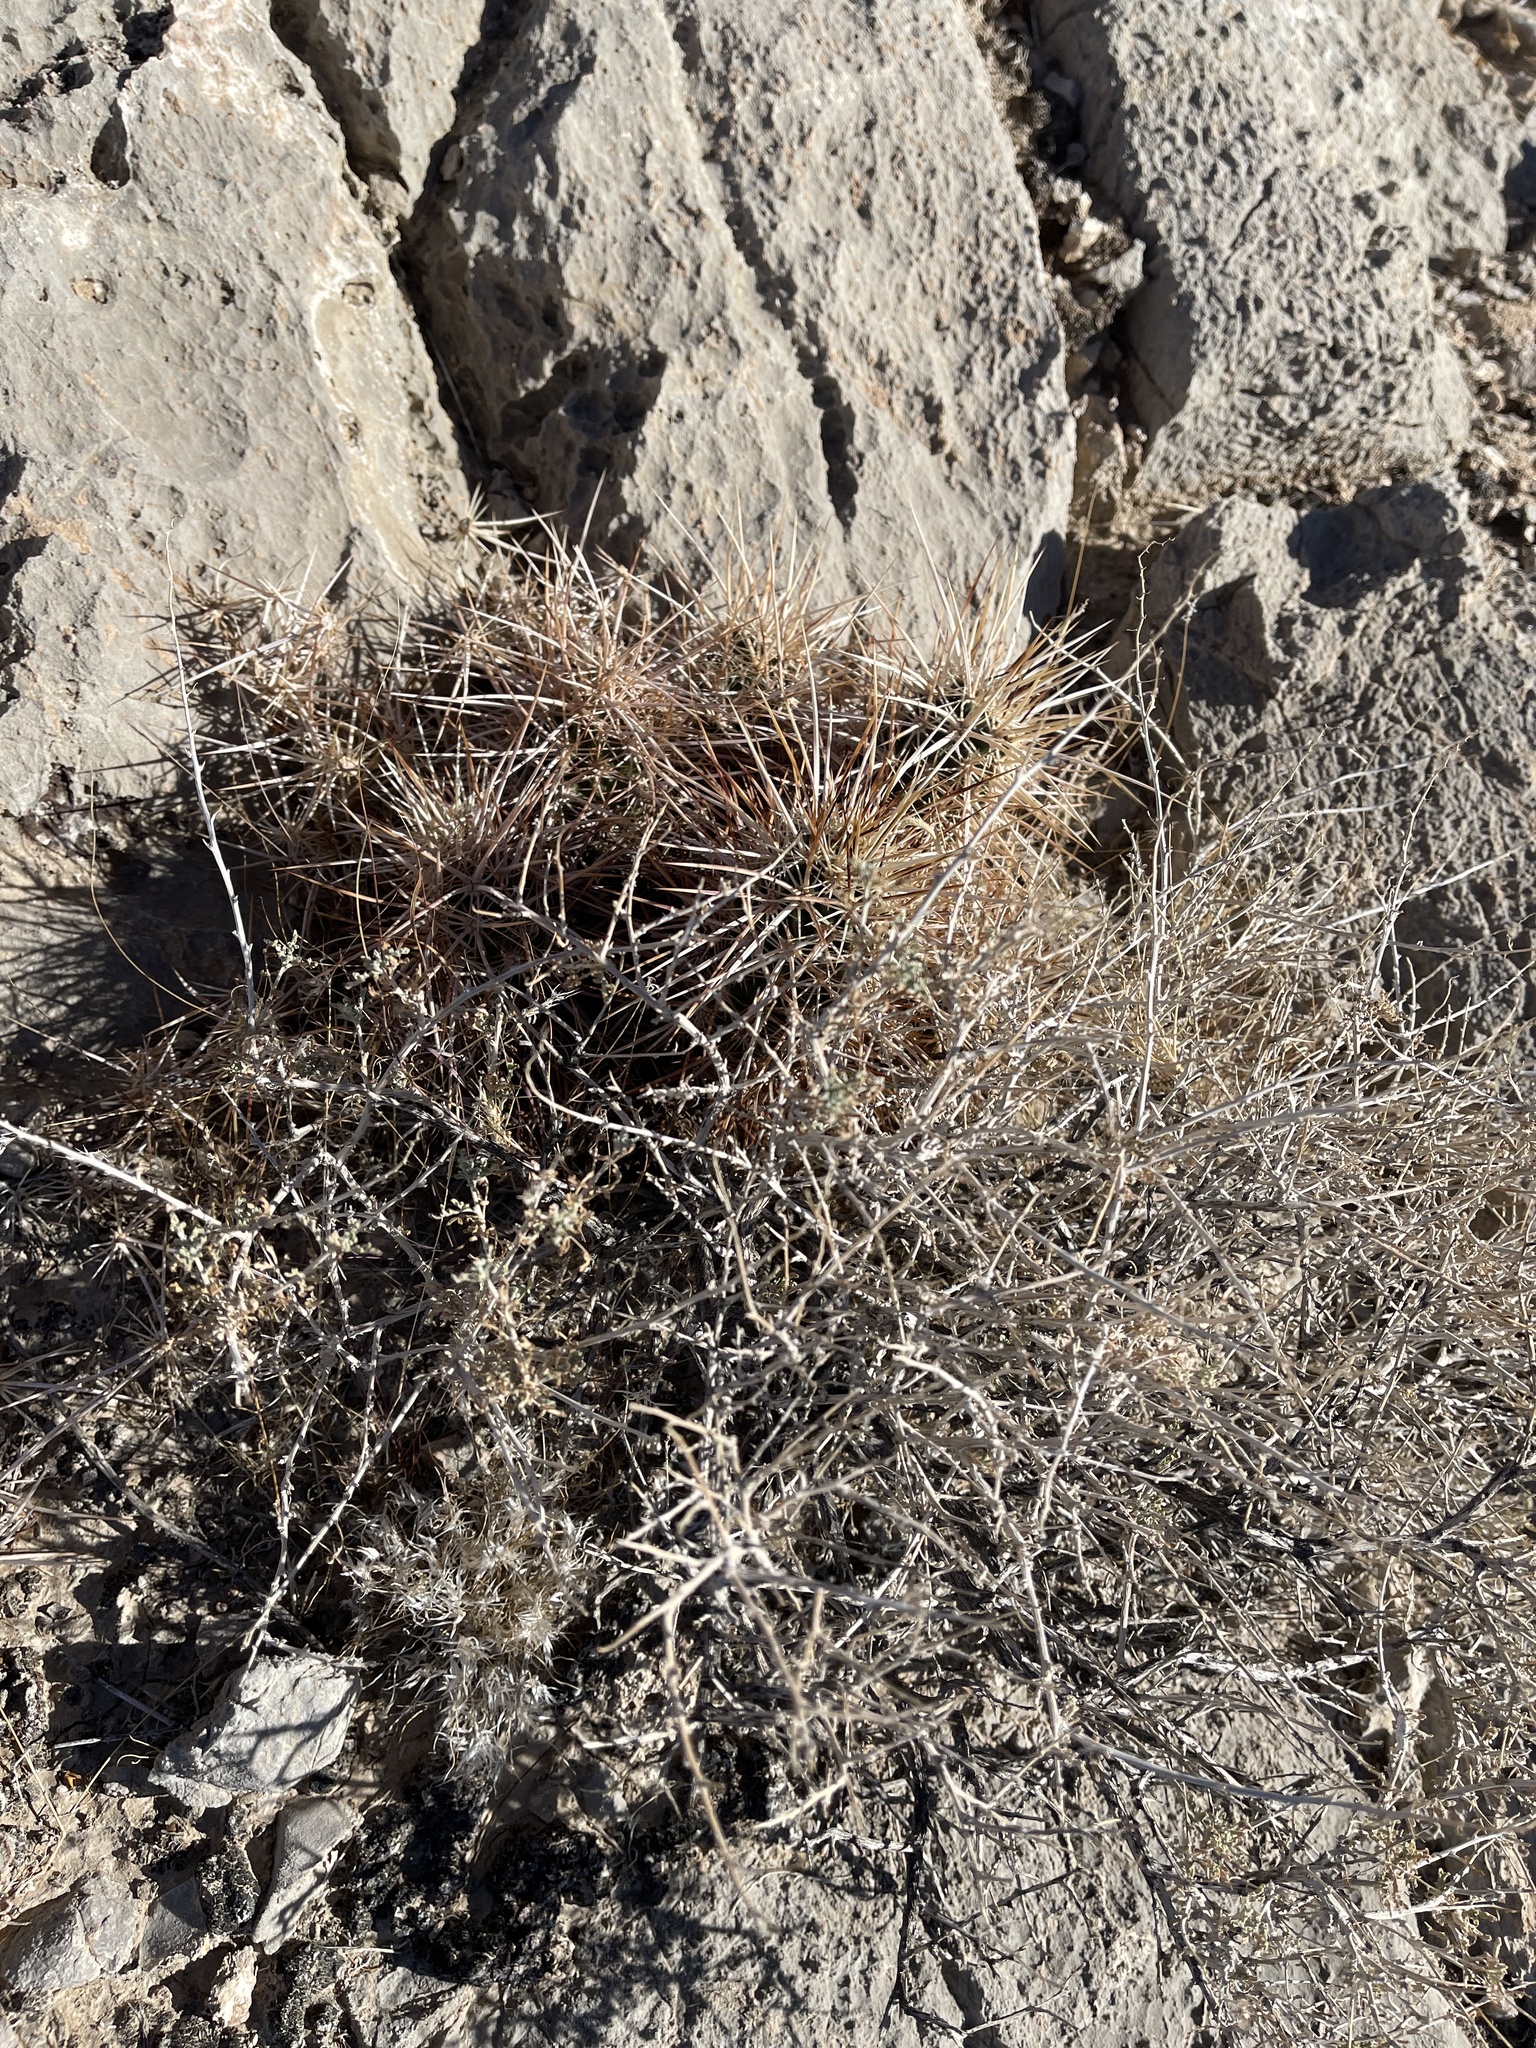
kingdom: Plantae
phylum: Tracheophyta
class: Magnoliopsida
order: Asterales
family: Asteraceae
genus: Ambrosia
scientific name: Ambrosia dumosa
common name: Bur-sage
